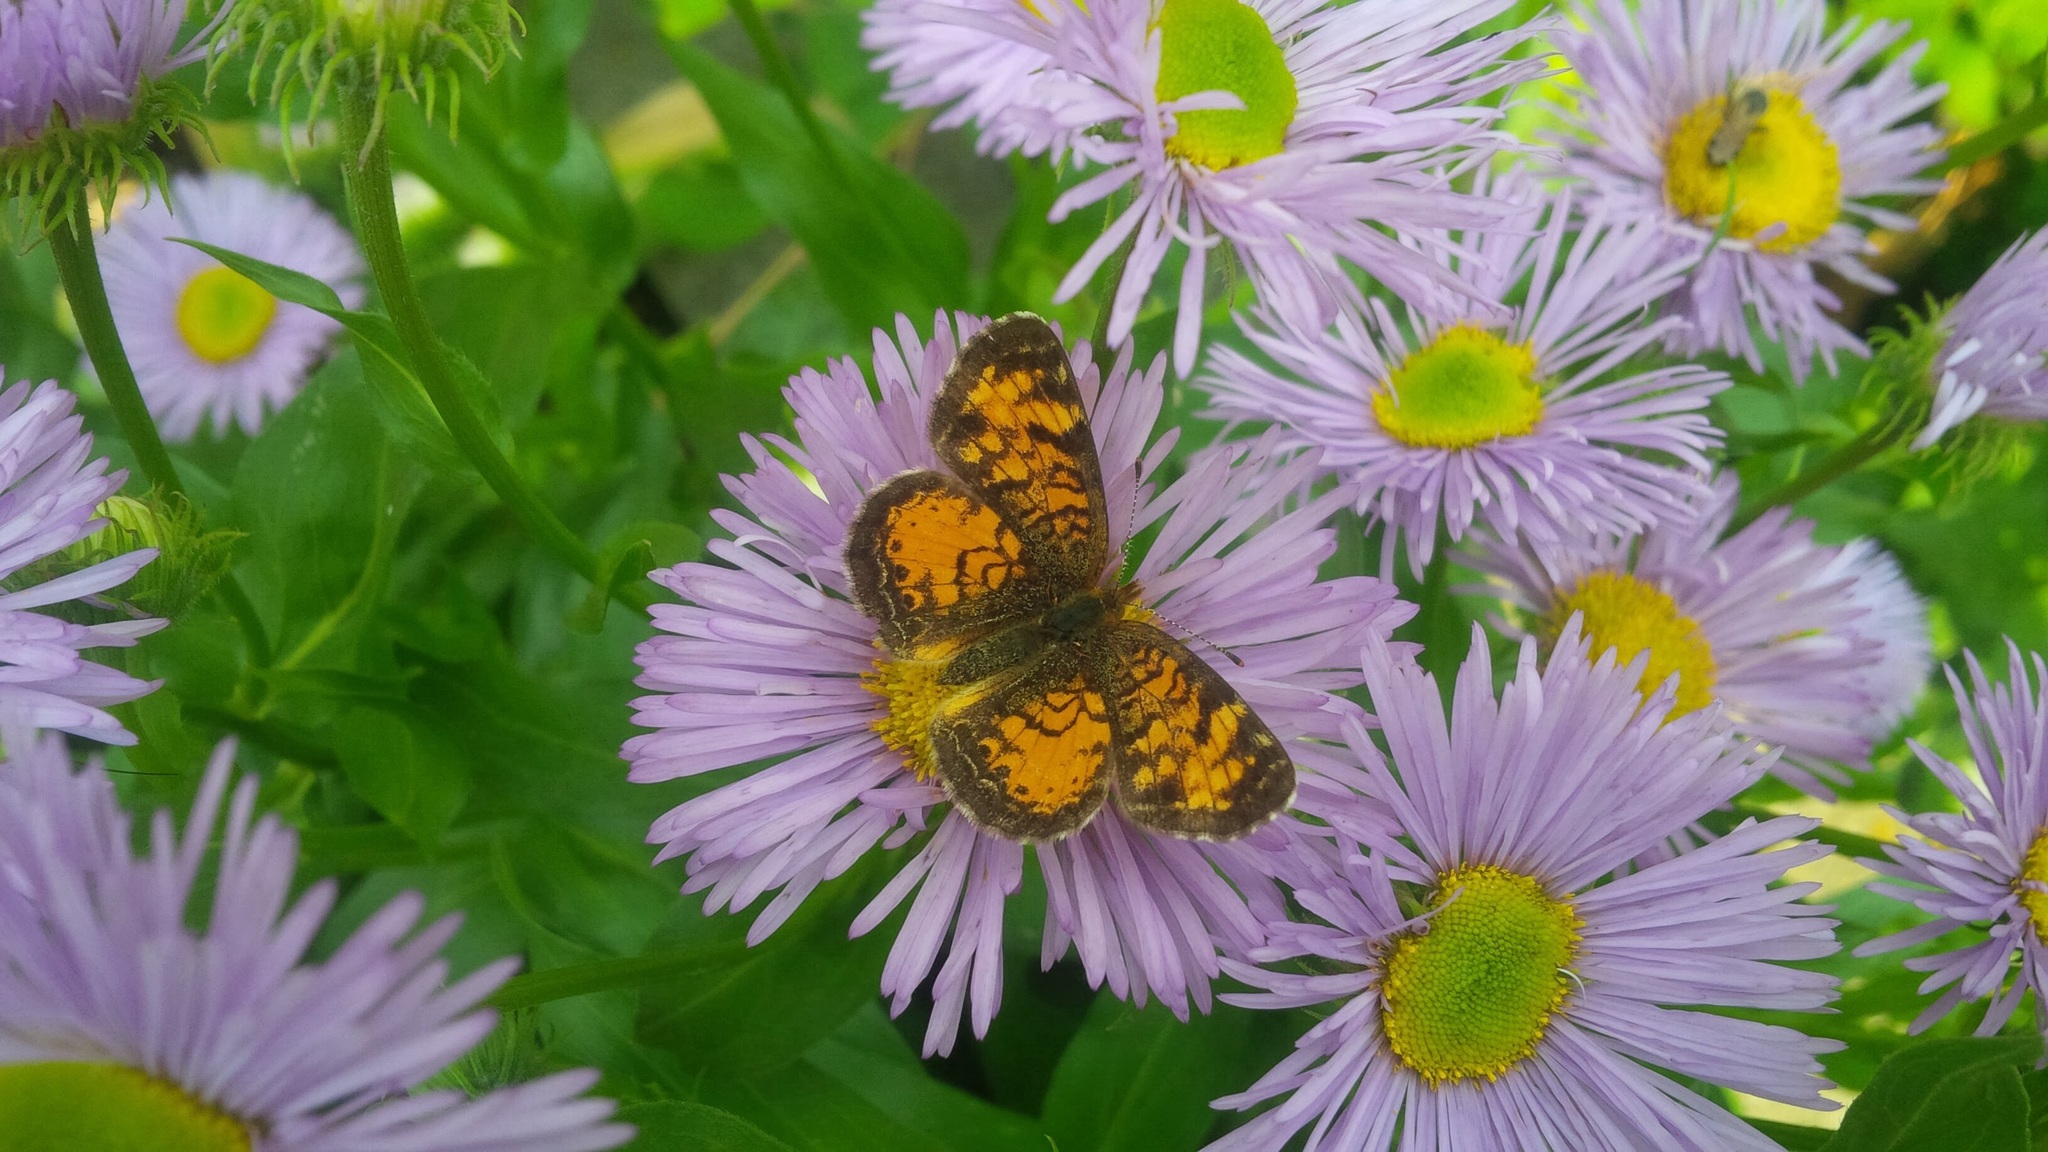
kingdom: Animalia
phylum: Arthropoda
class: Insecta
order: Lepidoptera
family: Nymphalidae
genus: Phyciodes
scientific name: Phyciodes tharos
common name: Pearl crescent
